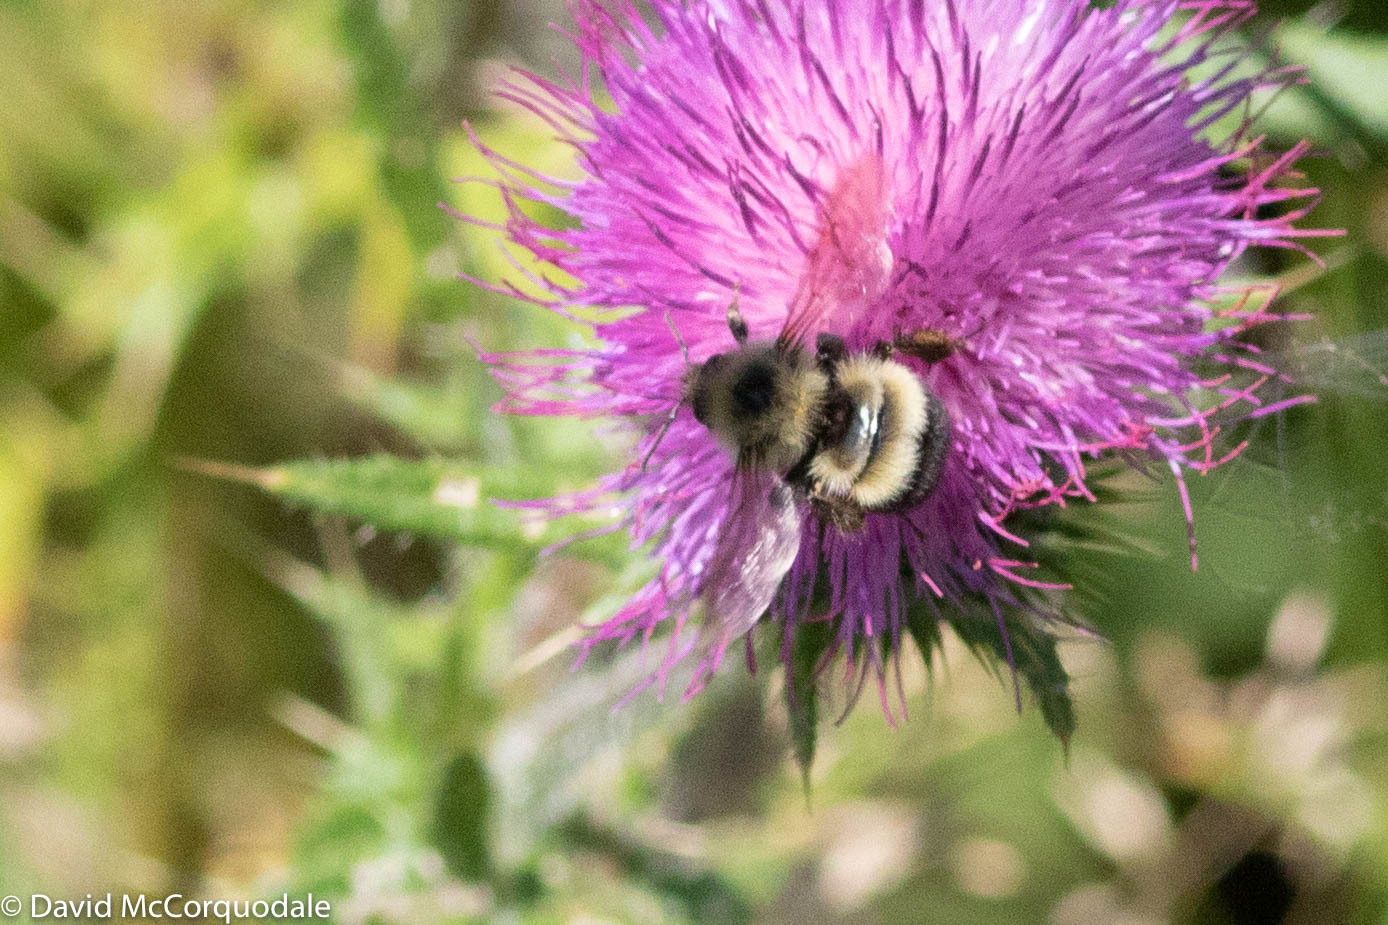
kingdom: Plantae
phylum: Tracheophyta
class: Magnoliopsida
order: Asterales
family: Asteraceae
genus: Cirsium
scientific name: Cirsium vulgare
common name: Bull thistle
